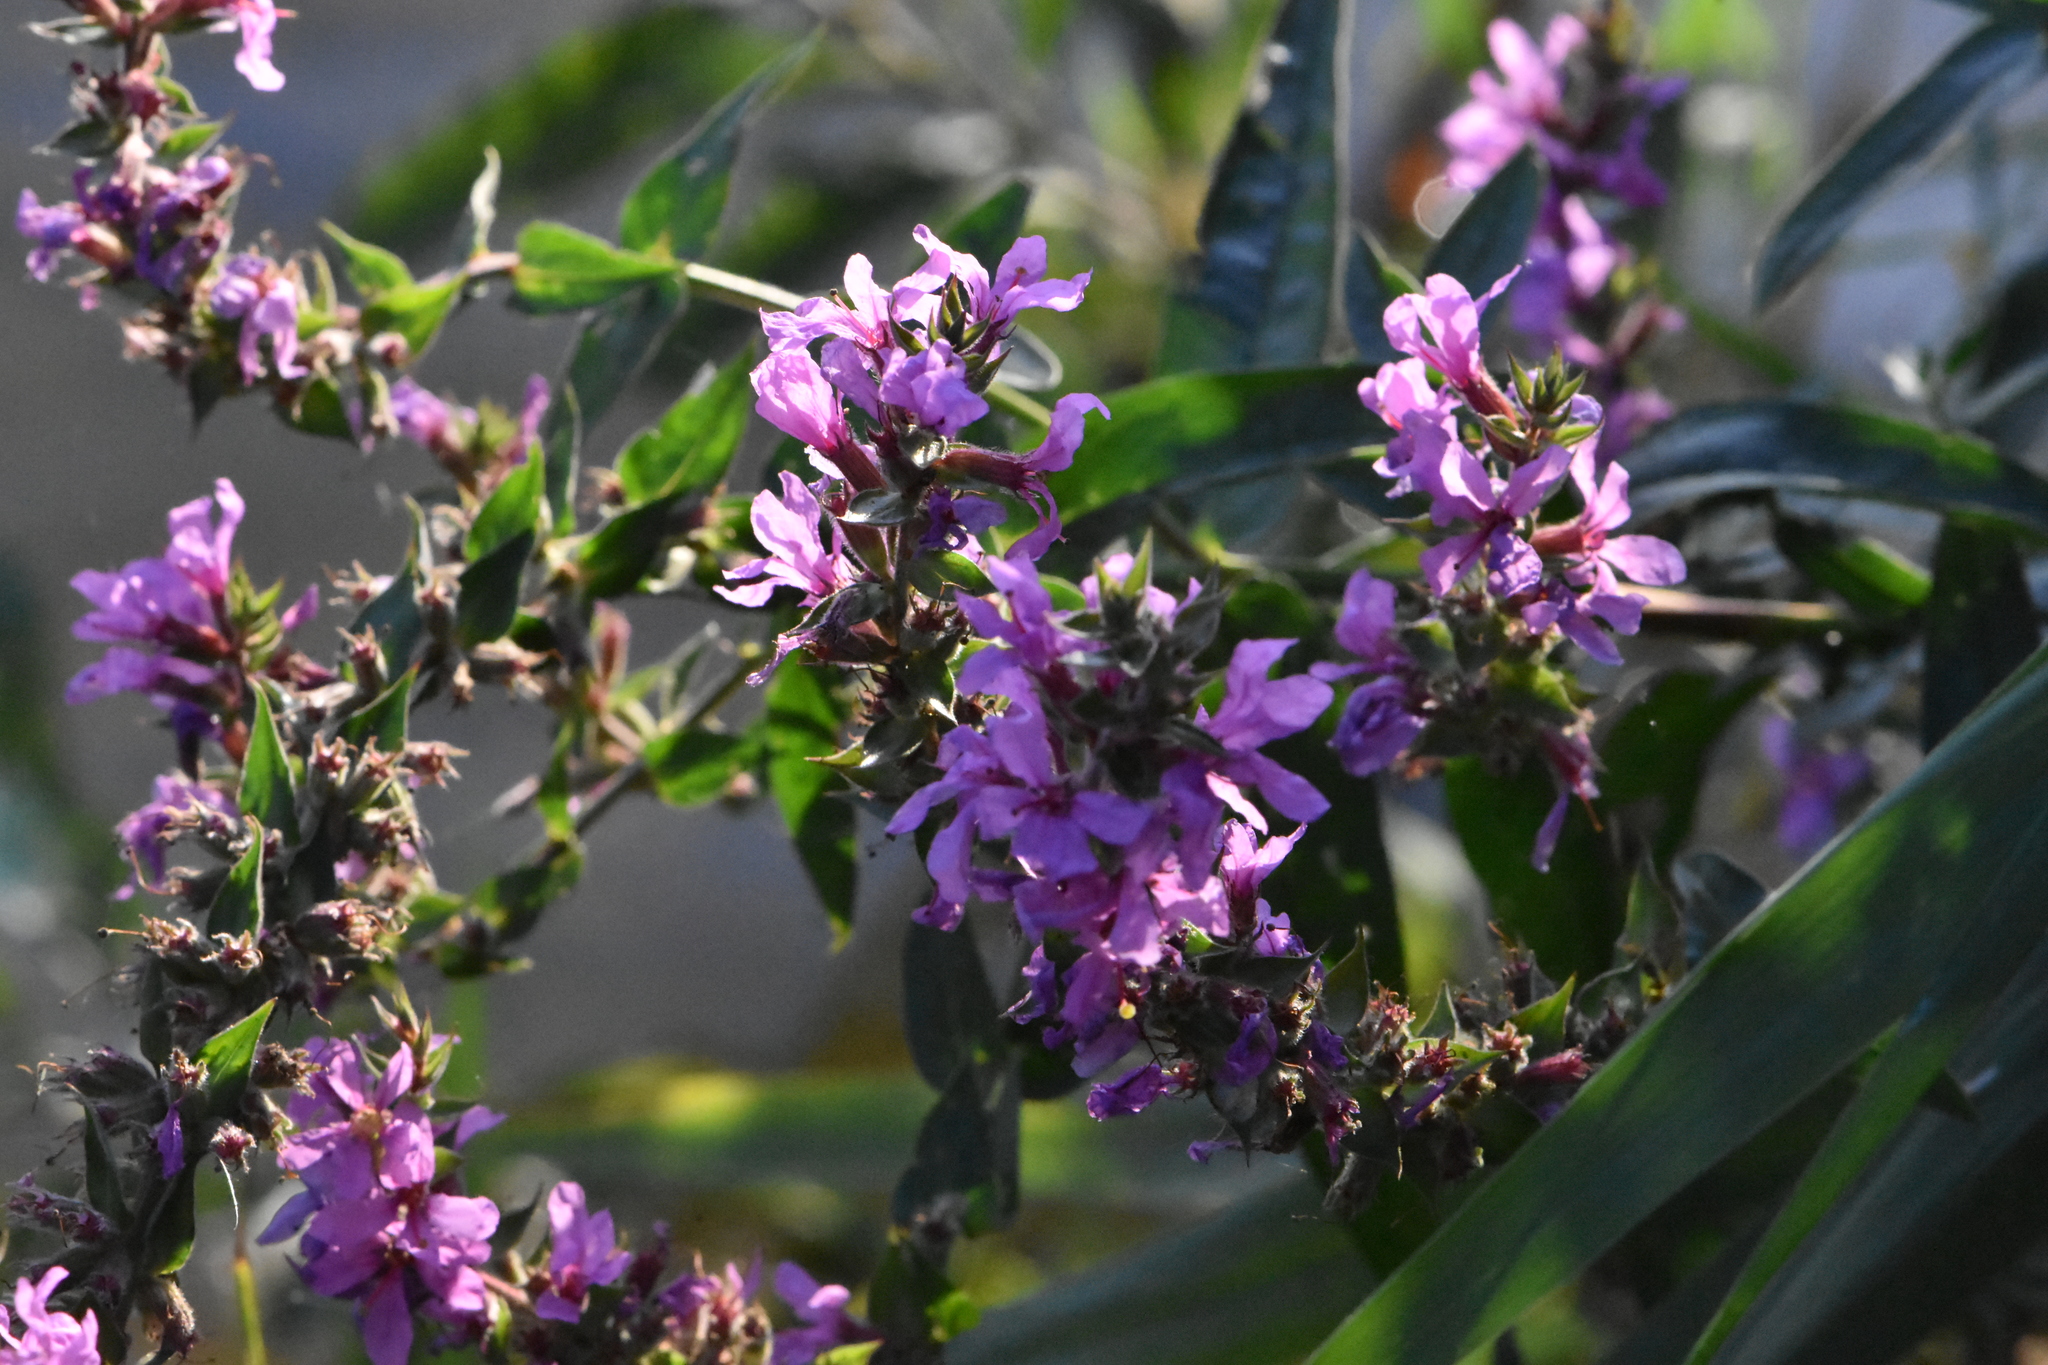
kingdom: Plantae
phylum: Tracheophyta
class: Magnoliopsida
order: Myrtales
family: Lythraceae
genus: Lythrum
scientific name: Lythrum salicaria
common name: Purple loosestrife
